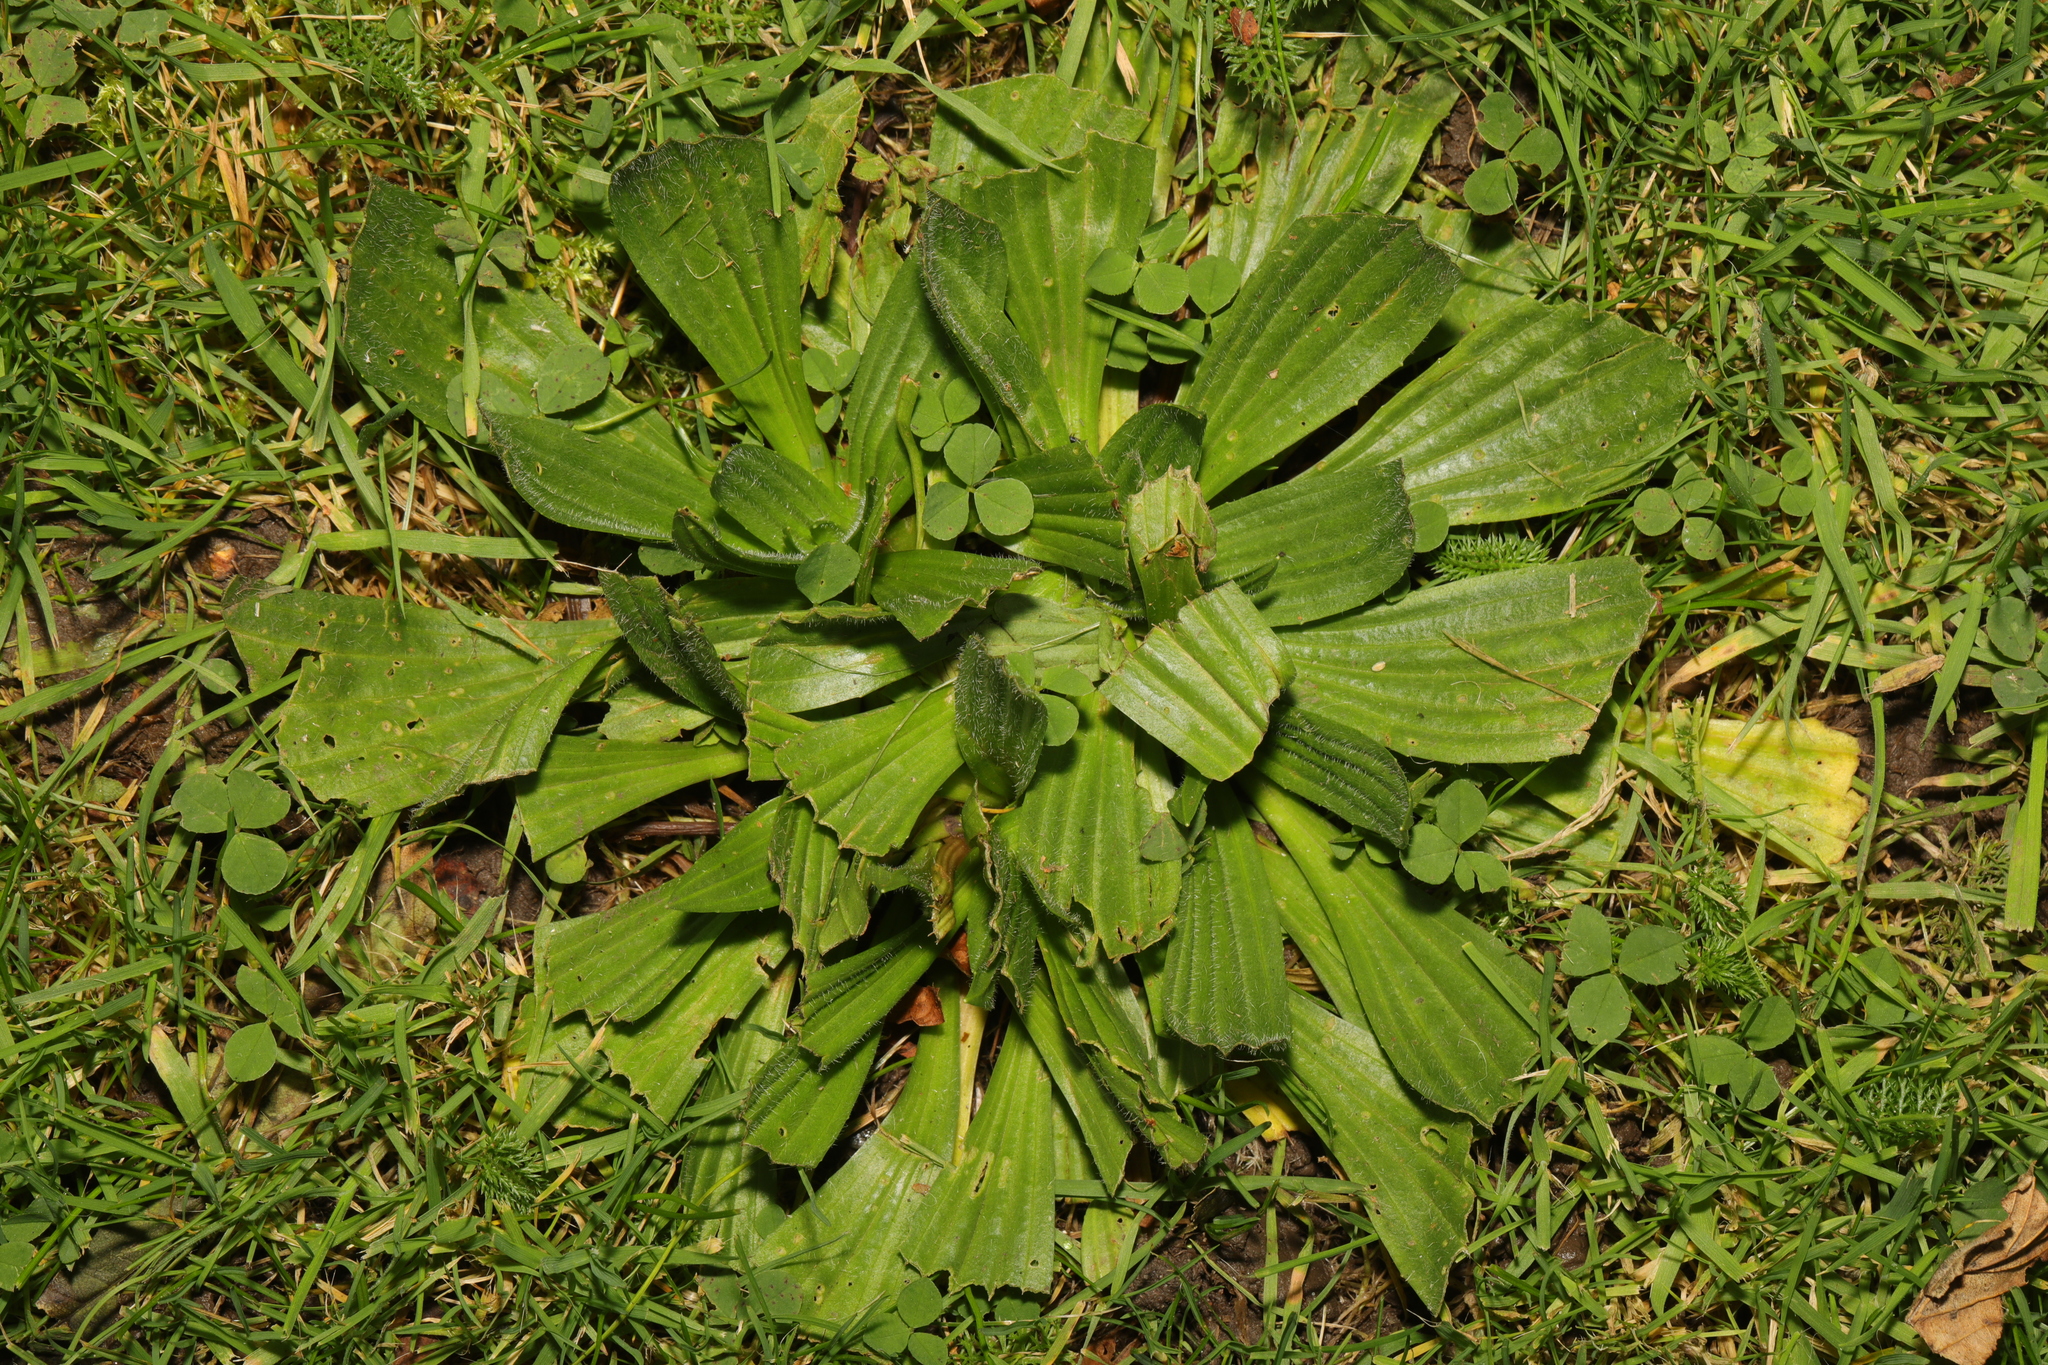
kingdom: Plantae
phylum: Tracheophyta
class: Magnoliopsida
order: Lamiales
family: Plantaginaceae
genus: Plantago
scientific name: Plantago lanceolata
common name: Ribwort plantain
